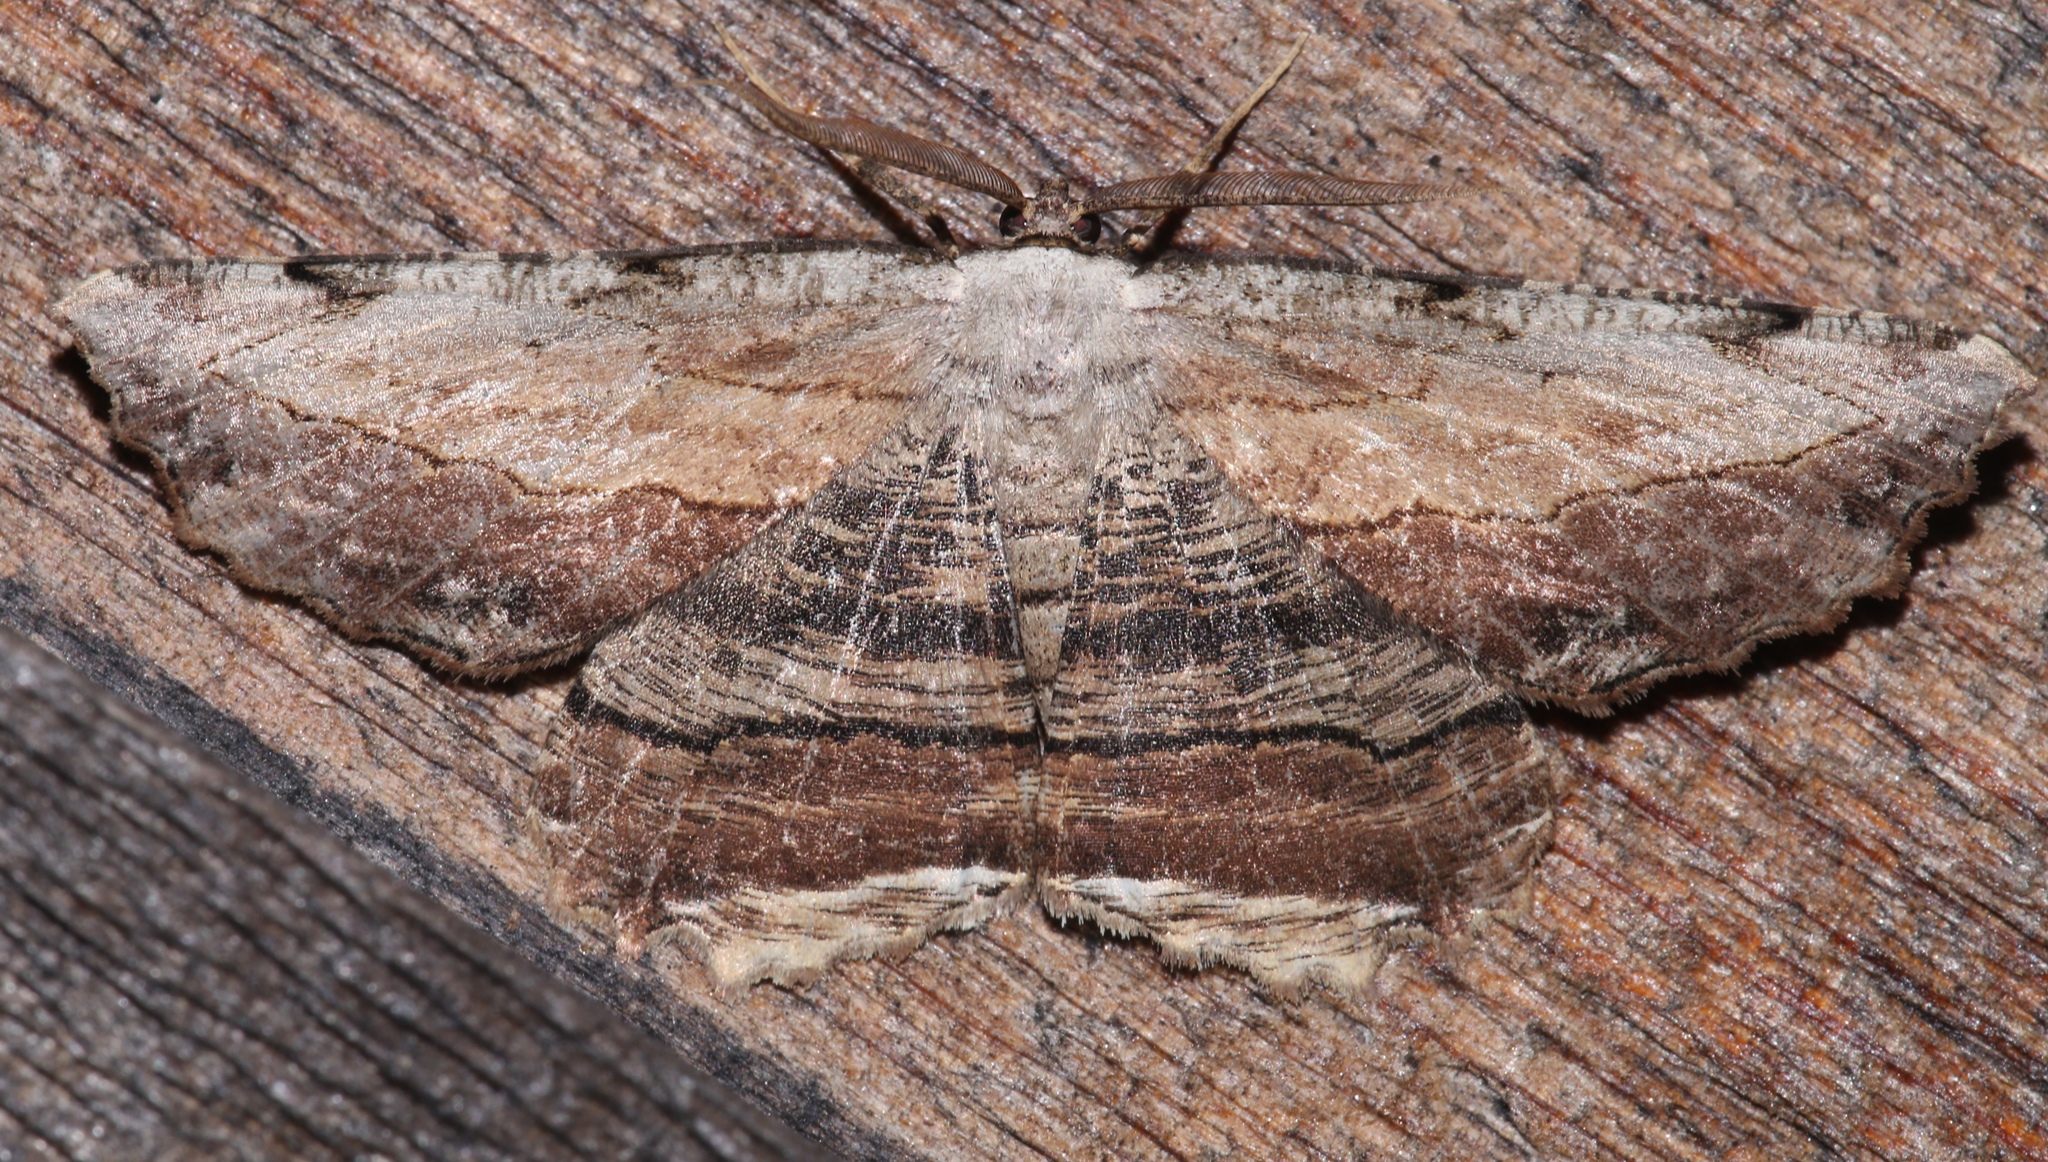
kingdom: Animalia
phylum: Arthropoda
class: Insecta
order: Lepidoptera
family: Geometridae
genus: Lytrosis
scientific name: Lytrosis unitaria
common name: Common lytrosis
